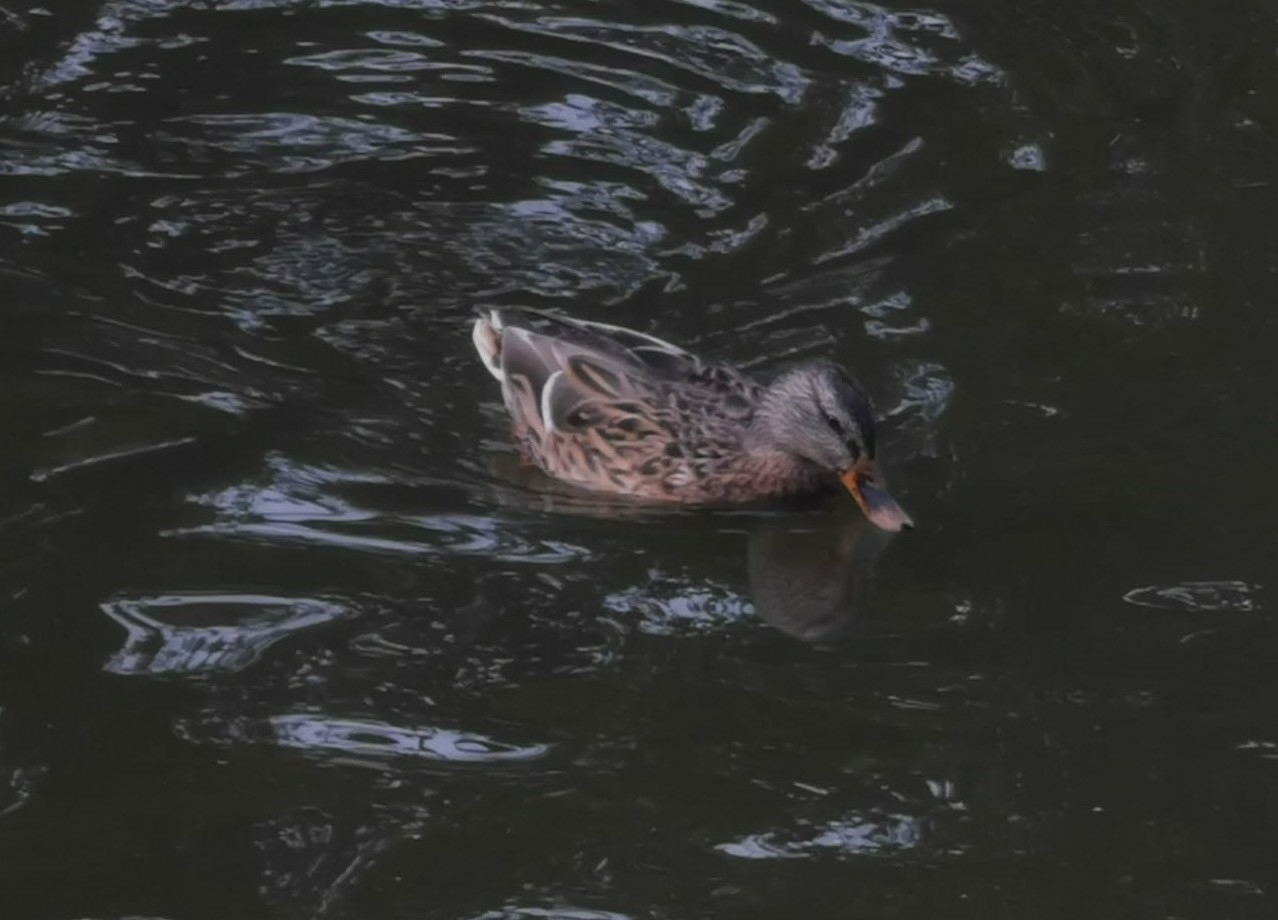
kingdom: Animalia
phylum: Chordata
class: Aves
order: Anseriformes
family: Anatidae
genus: Anas
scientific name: Anas platyrhynchos
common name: Mallard
